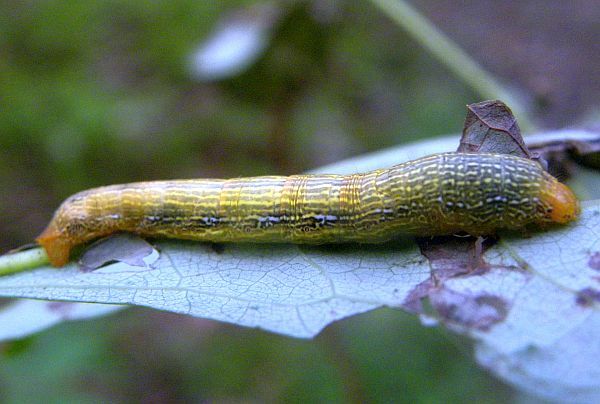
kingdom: Animalia
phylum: Arthropoda
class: Insecta
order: Lepidoptera
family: Geometridae
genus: Epimecis
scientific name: Epimecis hortaria
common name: Tulip-tree beauty
